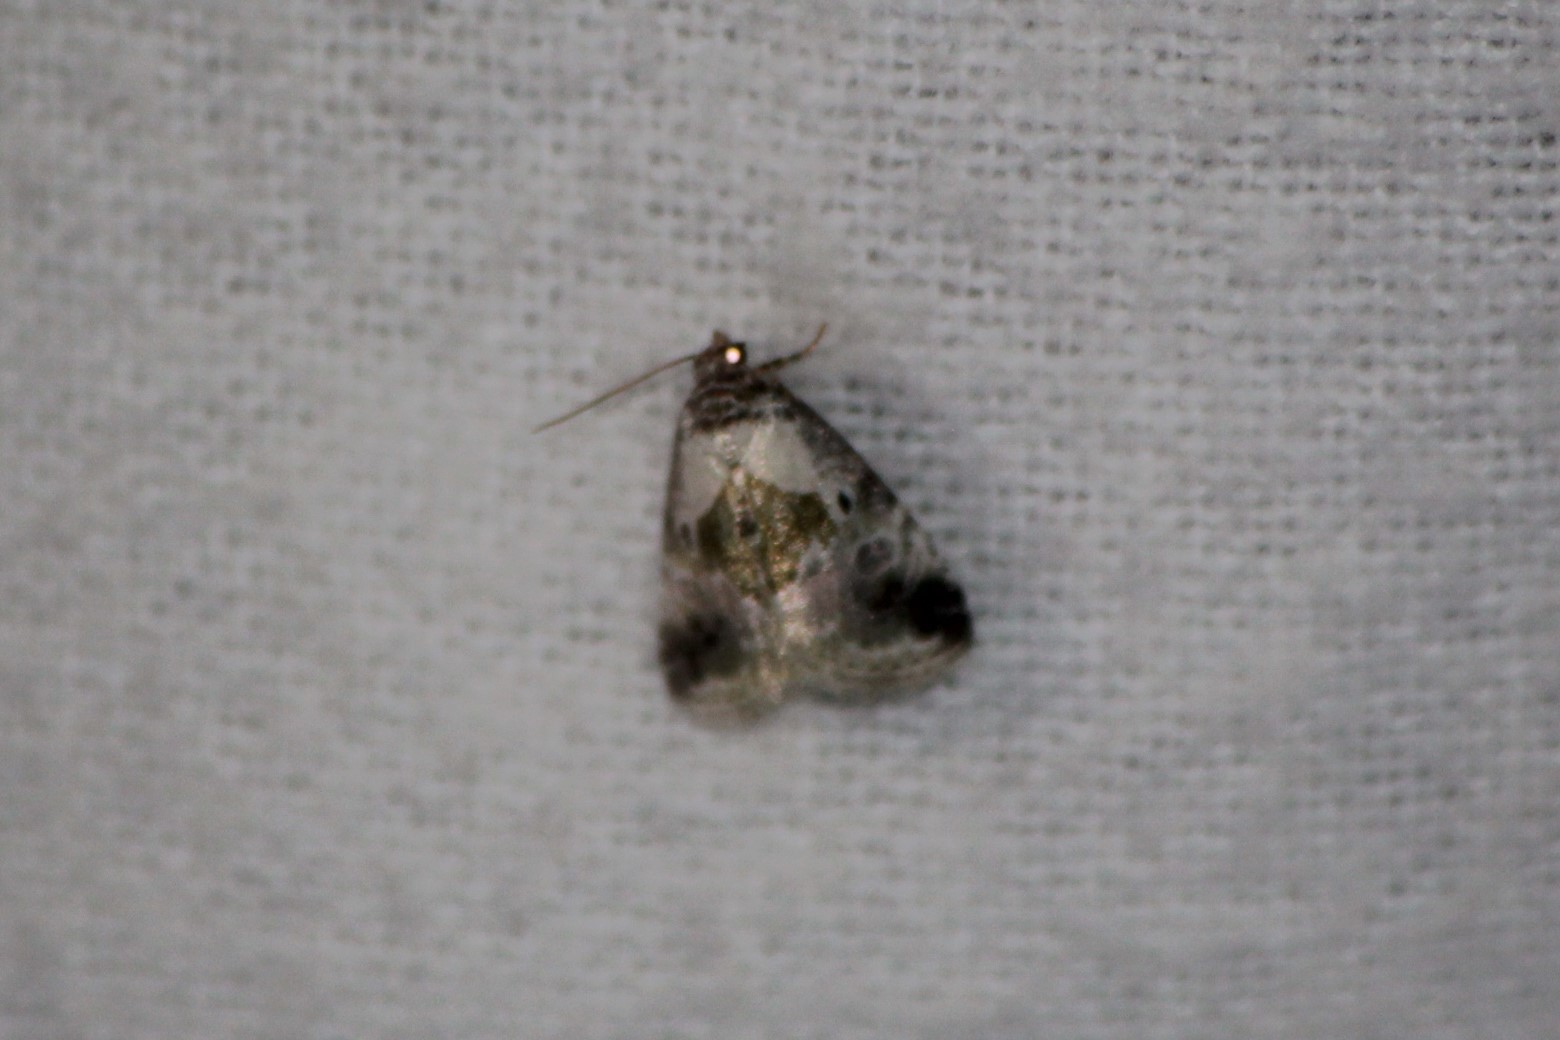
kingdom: Animalia
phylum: Arthropoda
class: Insecta
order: Lepidoptera
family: Noctuidae
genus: Maliattha
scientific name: Maliattha synochitis
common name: Black-dotted glyph
